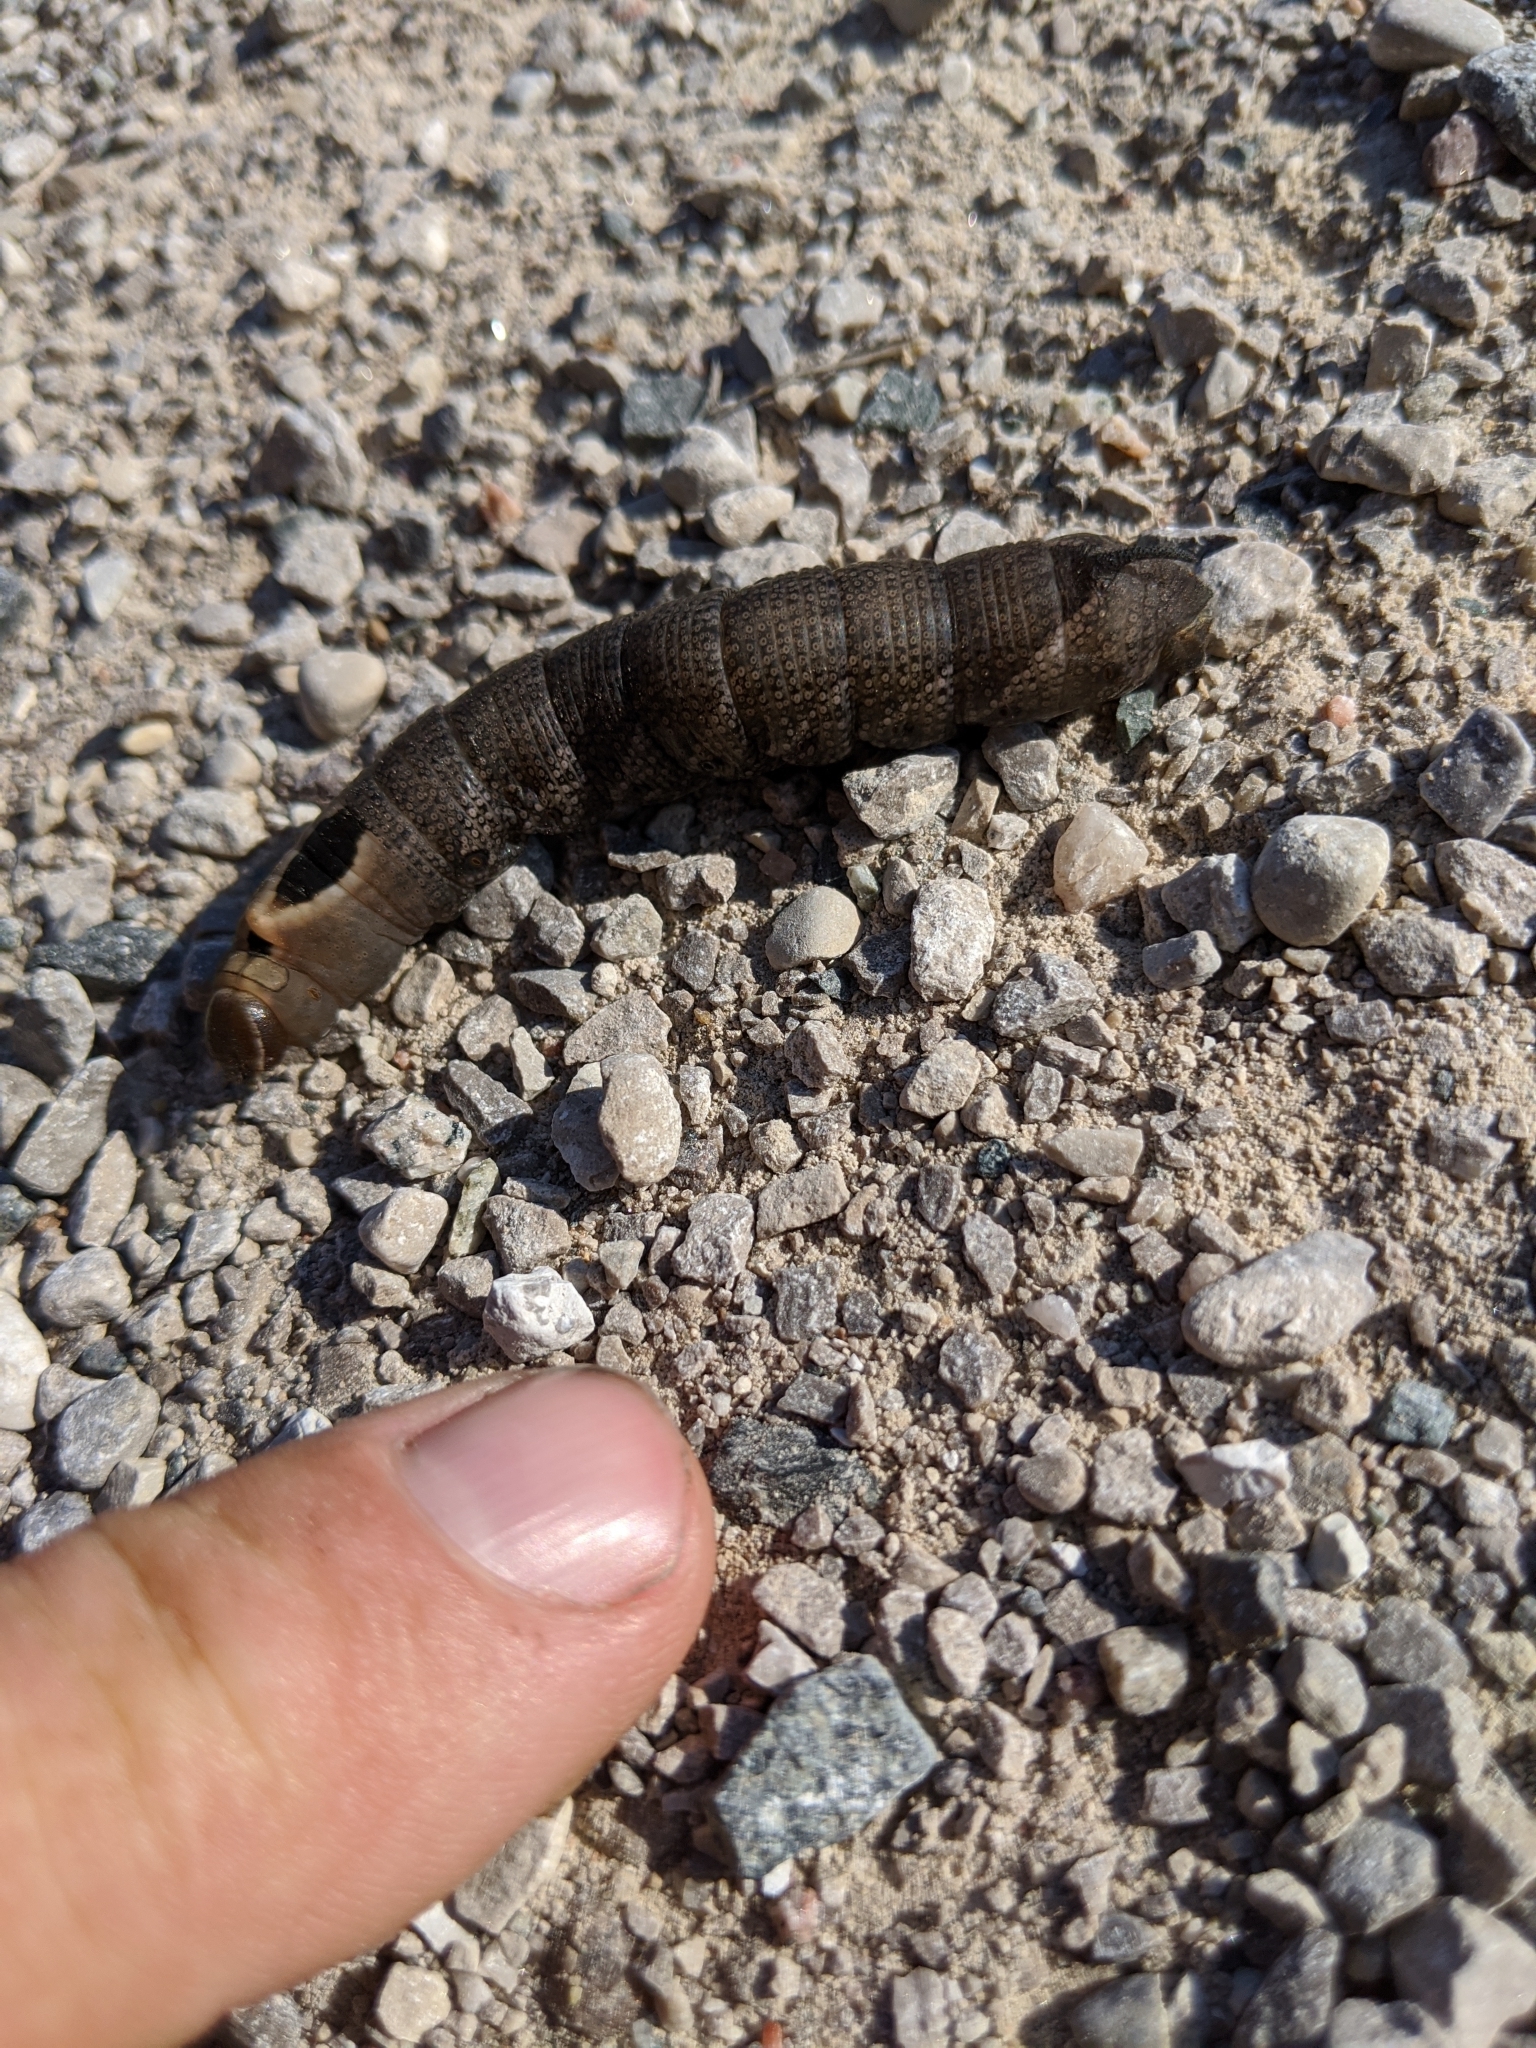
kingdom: Animalia
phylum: Arthropoda
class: Insecta
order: Lepidoptera
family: Sphingidae
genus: Lintneria
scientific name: Lintneria eremitus
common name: Hermit sphinx
